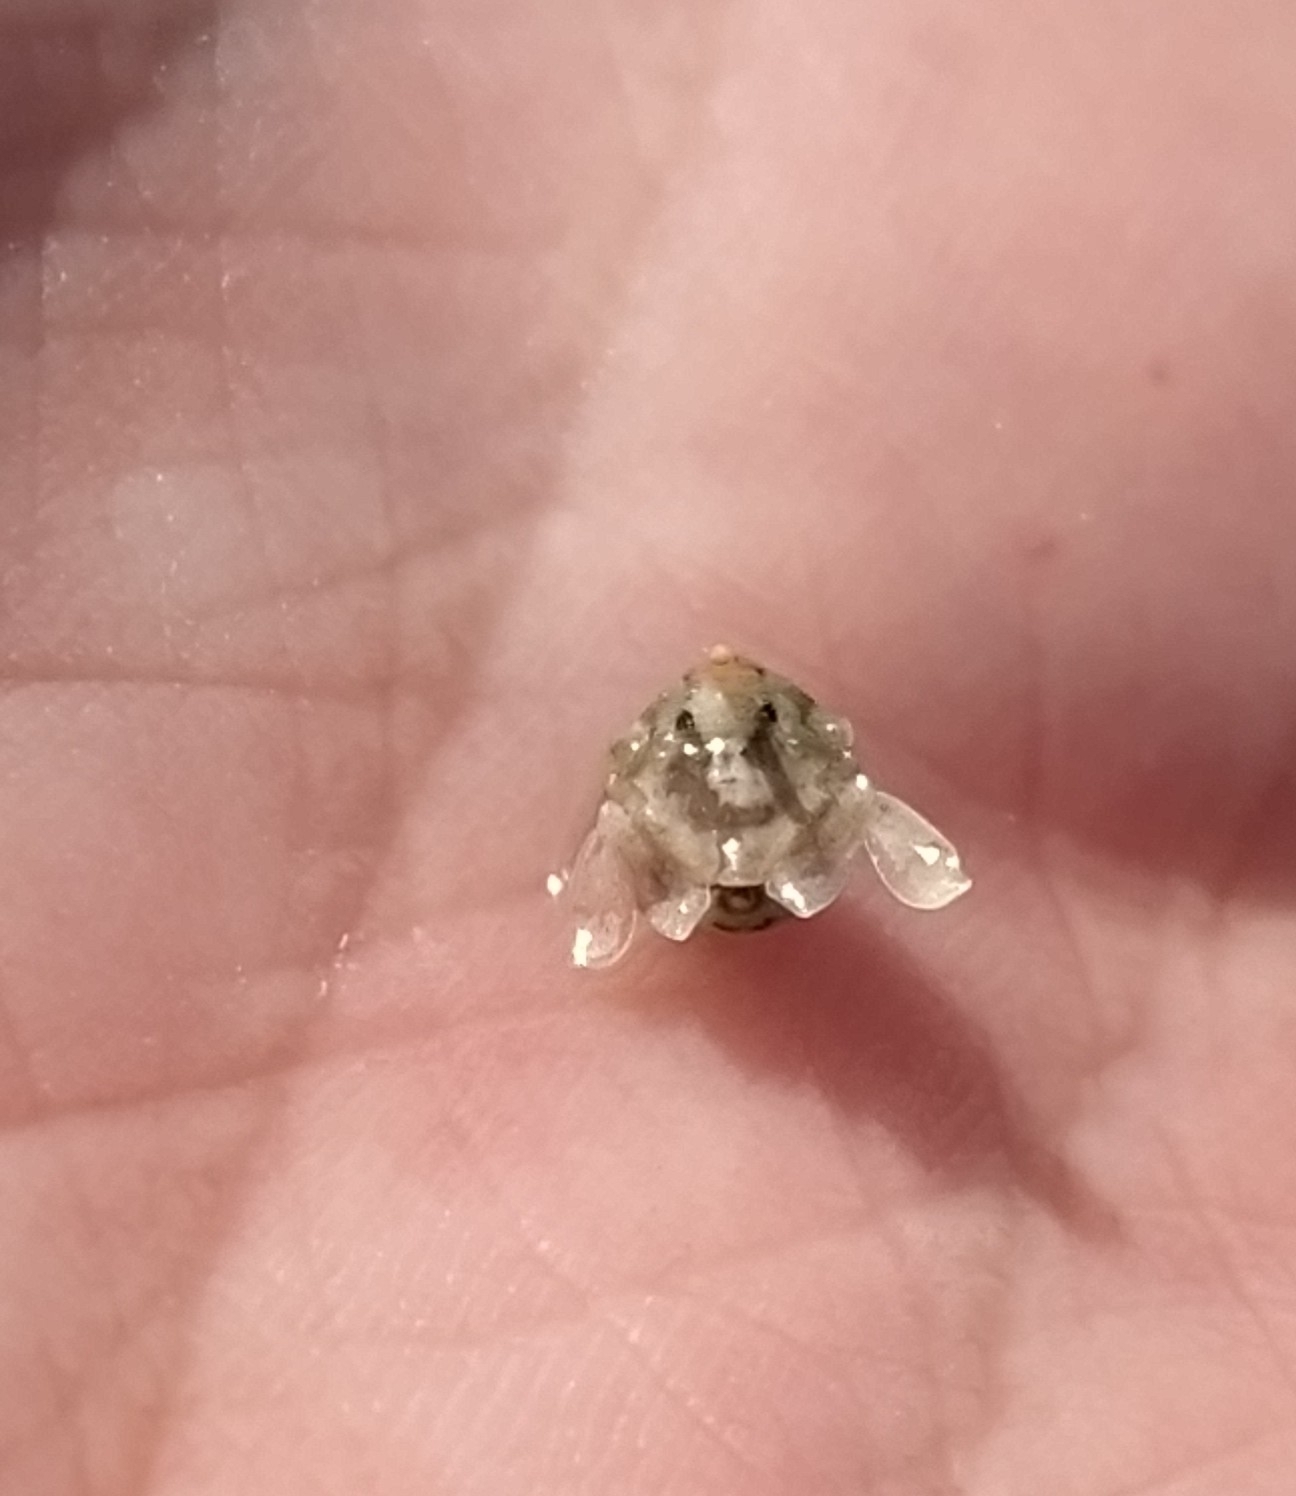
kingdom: Animalia
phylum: Arthropoda
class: Malacostraca
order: Isopoda
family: Sphaeromatidae
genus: Isocladus
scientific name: Isocladus dulciculus
